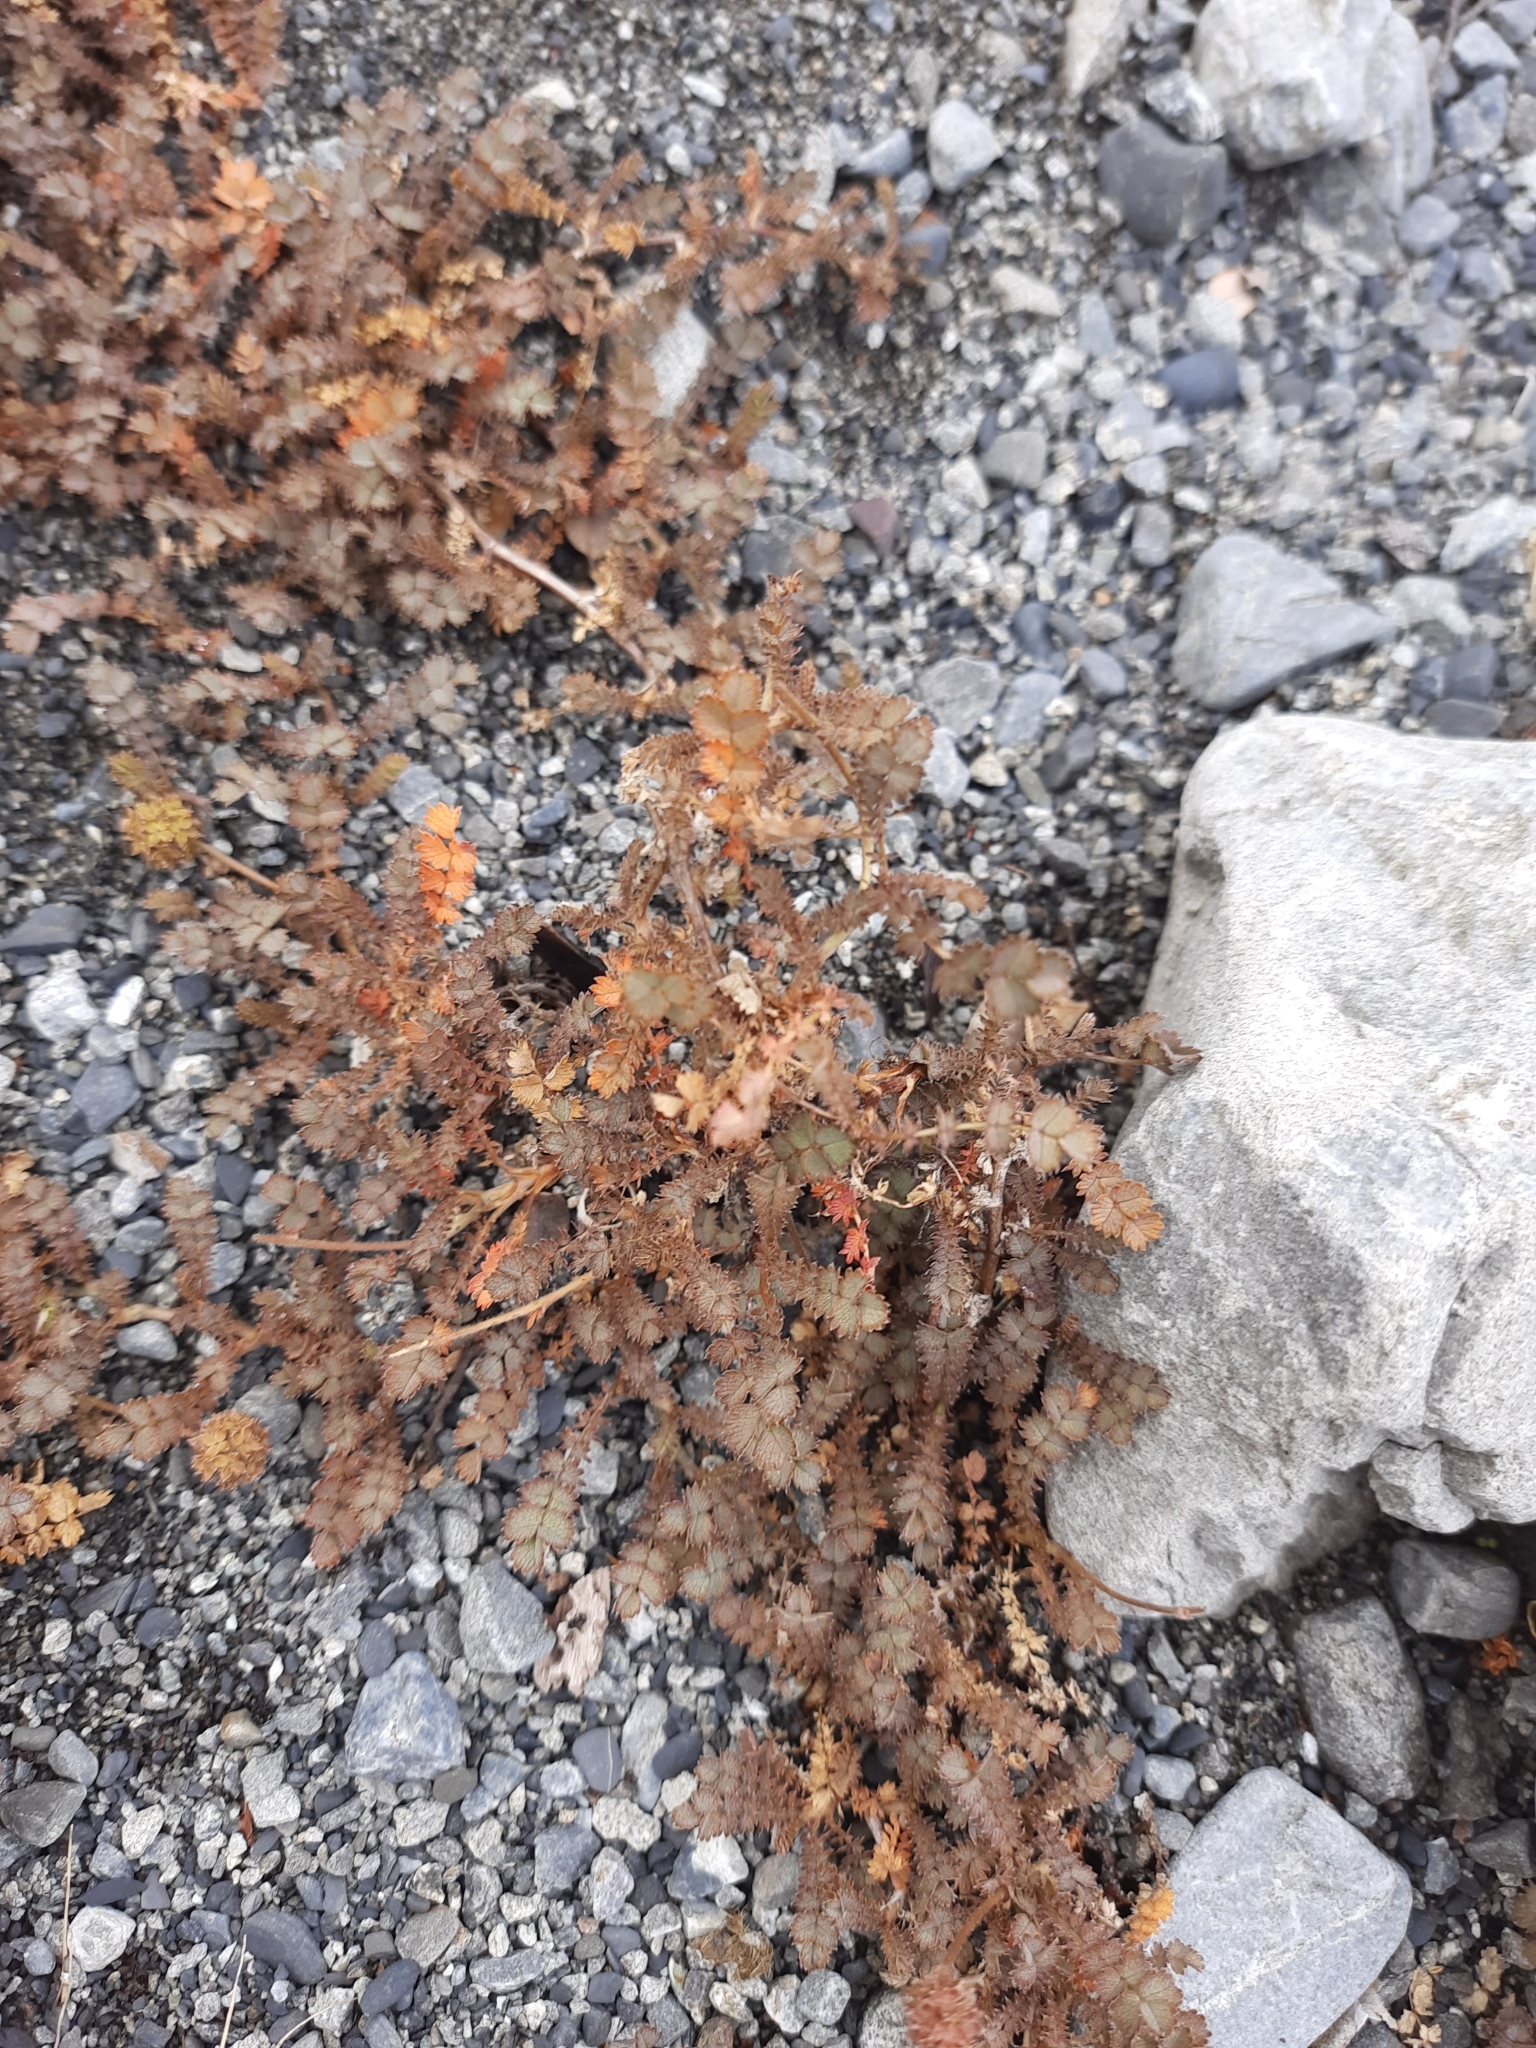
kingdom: Plantae
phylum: Tracheophyta
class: Magnoliopsida
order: Rosales
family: Rosaceae
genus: Acaena
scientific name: Acaena inermis
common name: Spineless acaena
